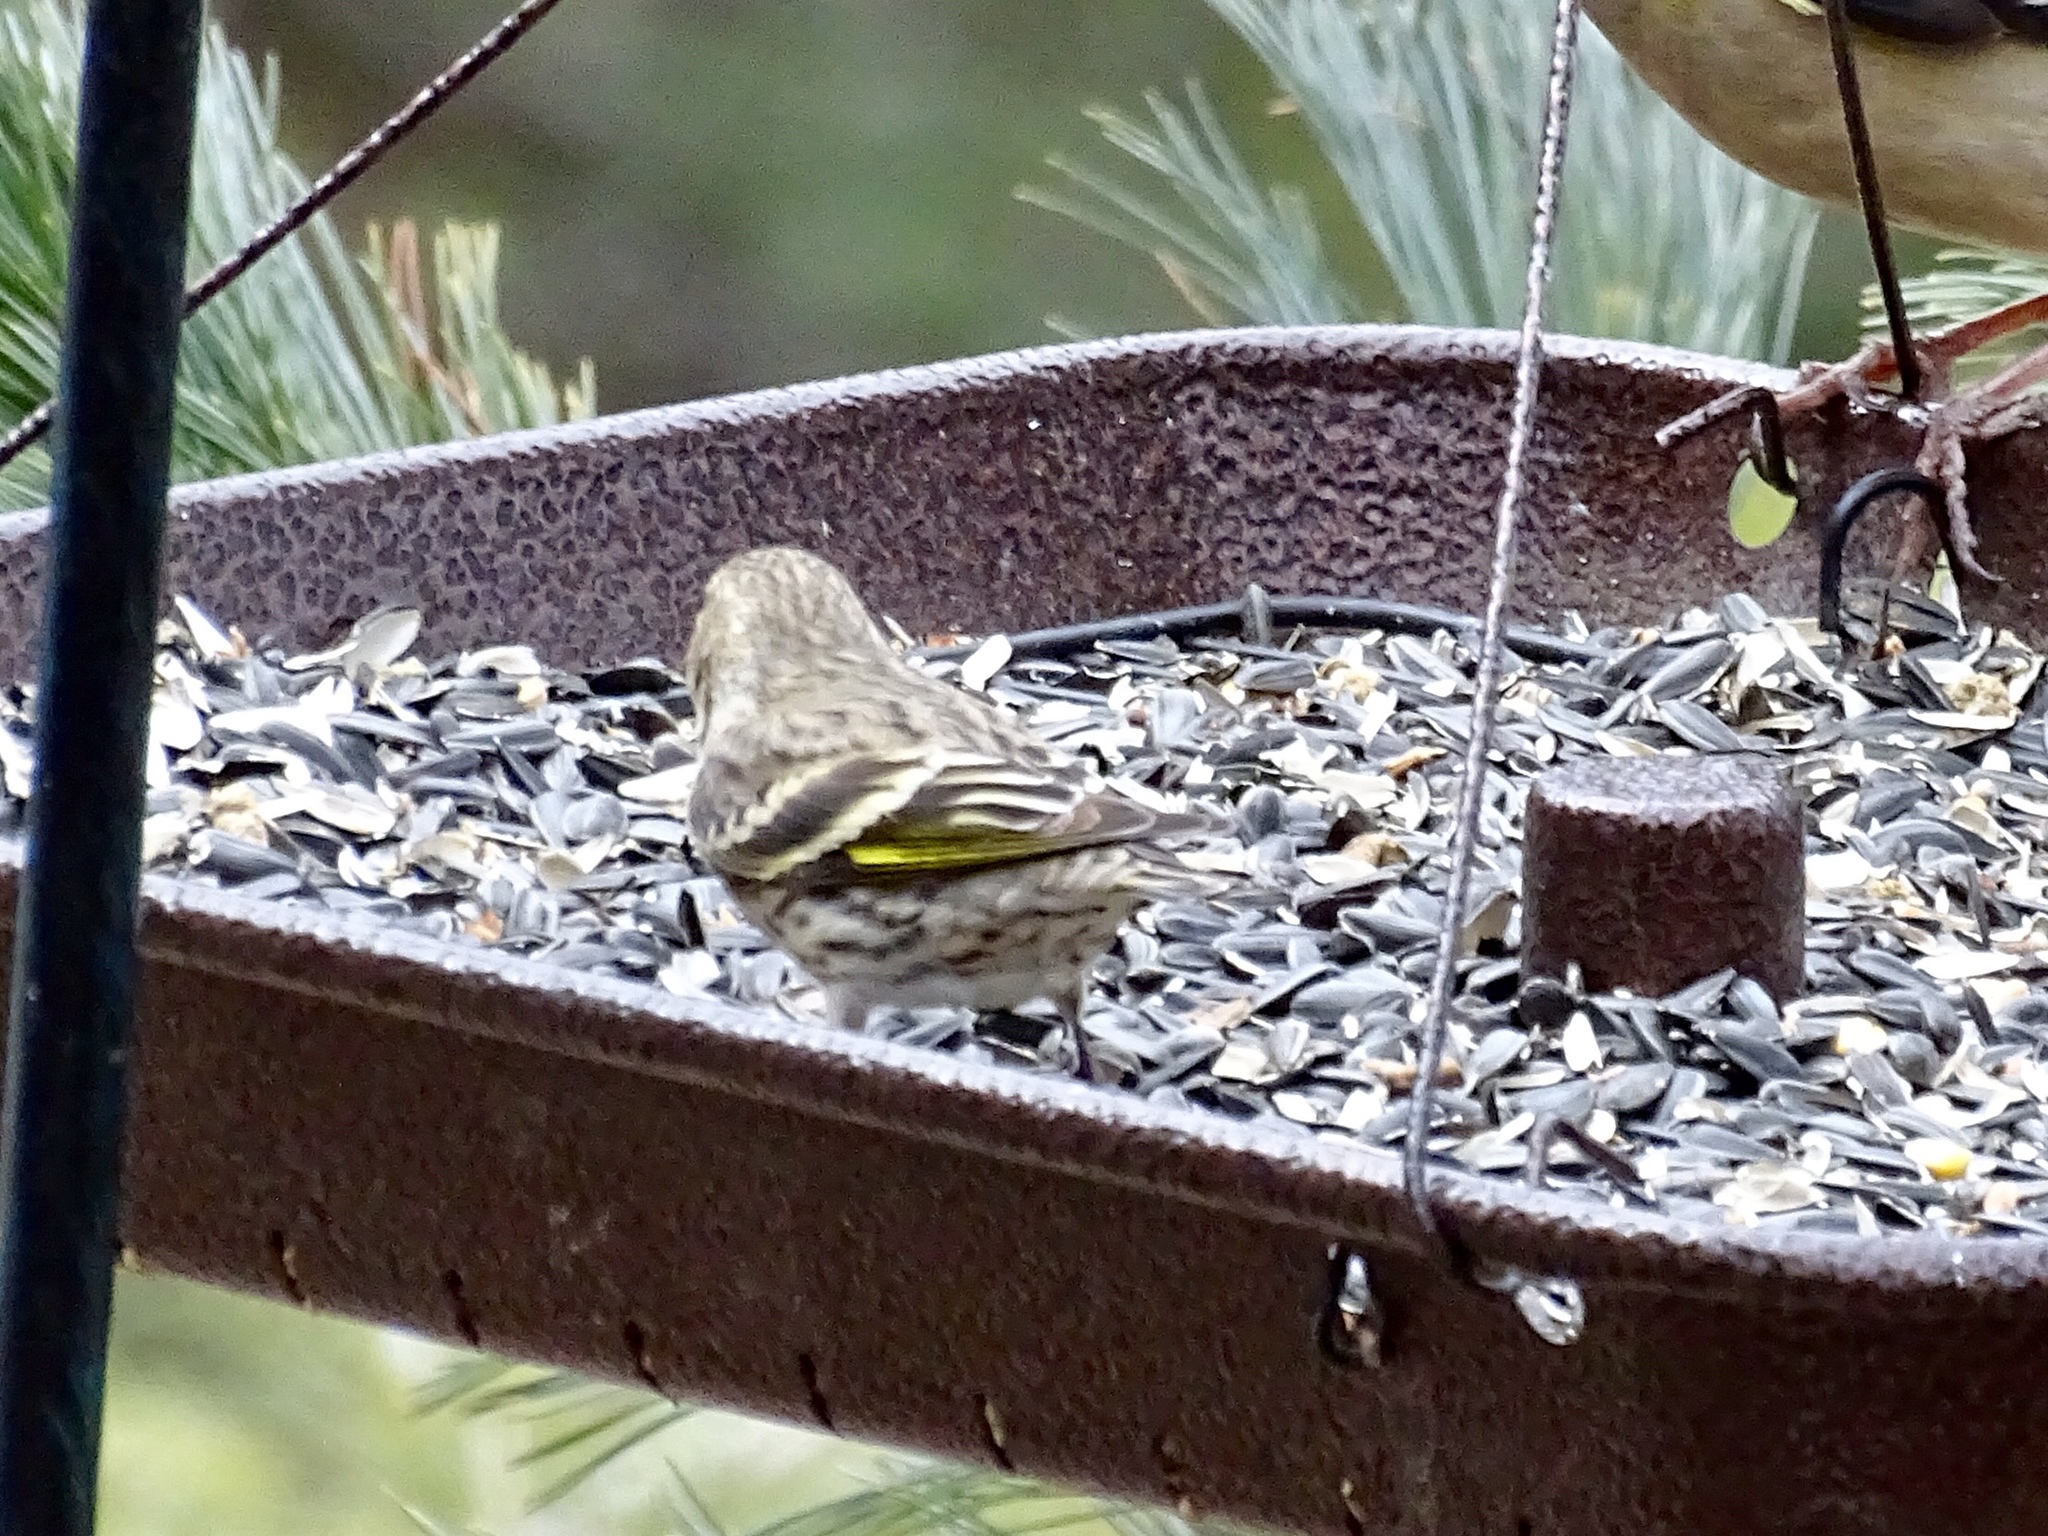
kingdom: Animalia
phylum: Chordata
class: Aves
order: Passeriformes
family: Fringillidae
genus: Spinus
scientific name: Spinus pinus
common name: Pine siskin
